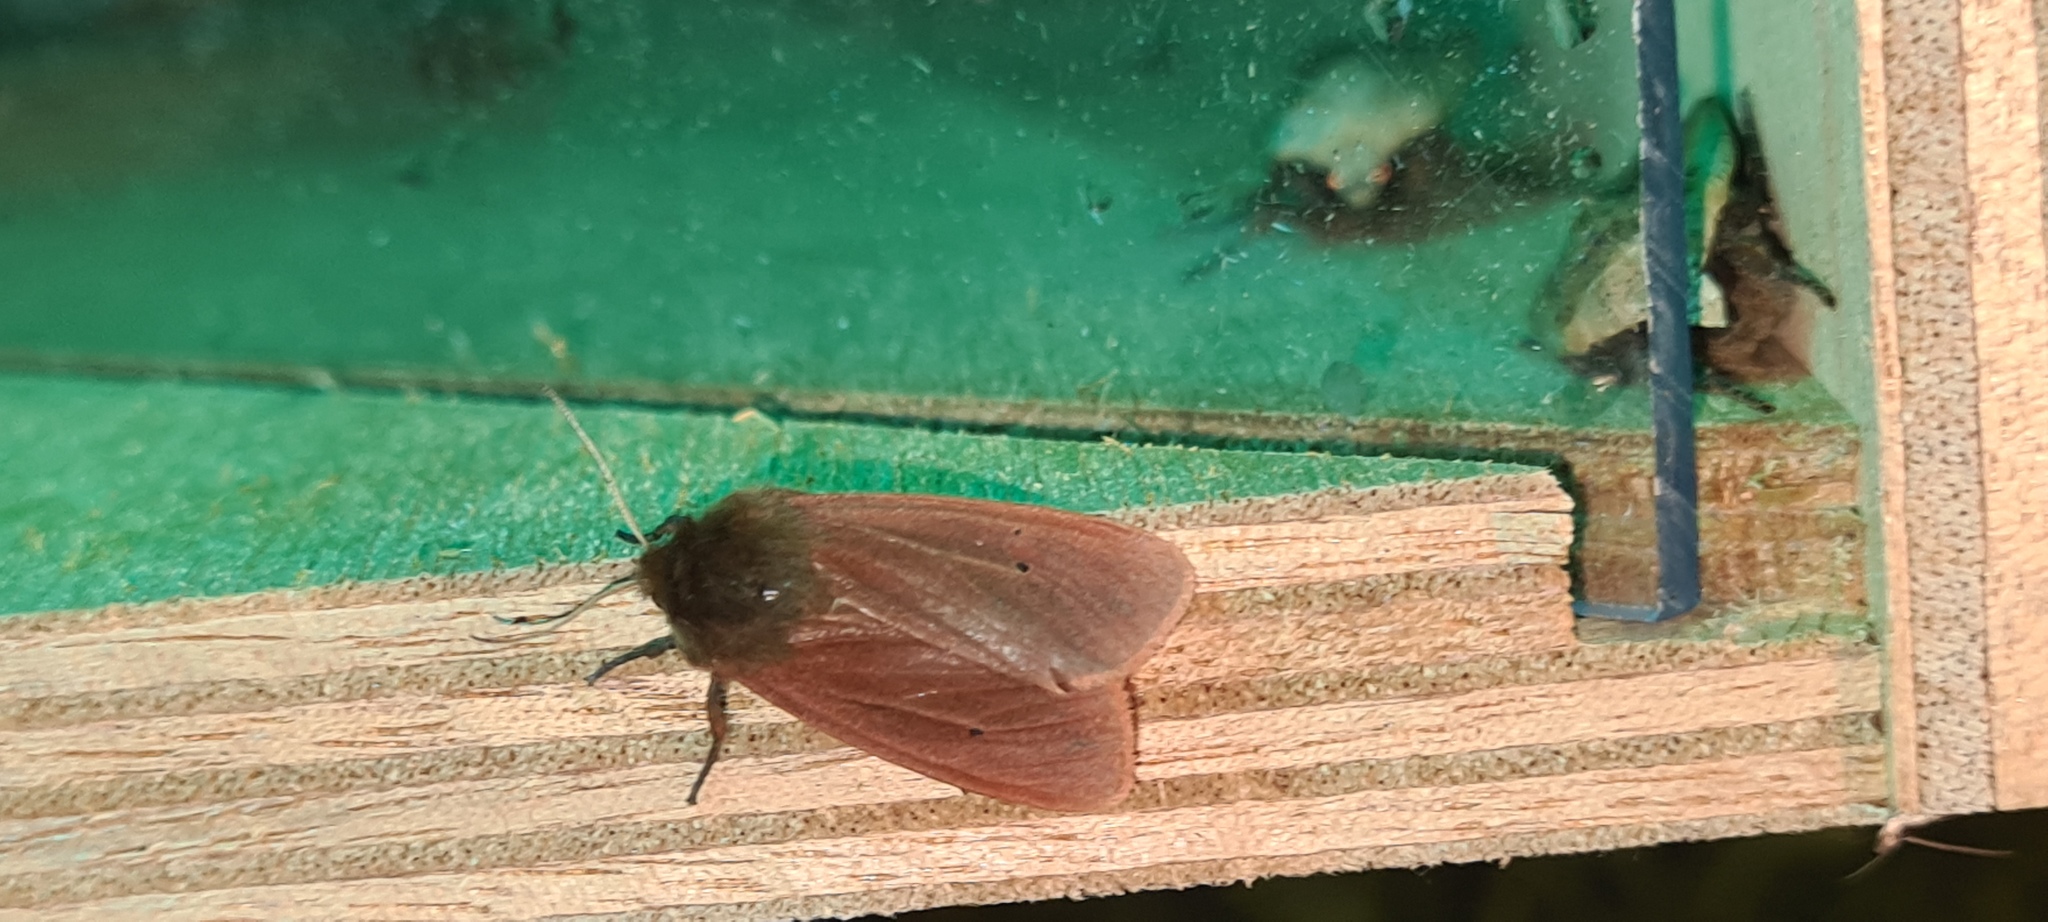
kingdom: Animalia
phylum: Arthropoda
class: Insecta
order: Lepidoptera
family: Erebidae
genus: Phragmatobia
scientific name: Phragmatobia fuliginosa
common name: Ruby tiger
